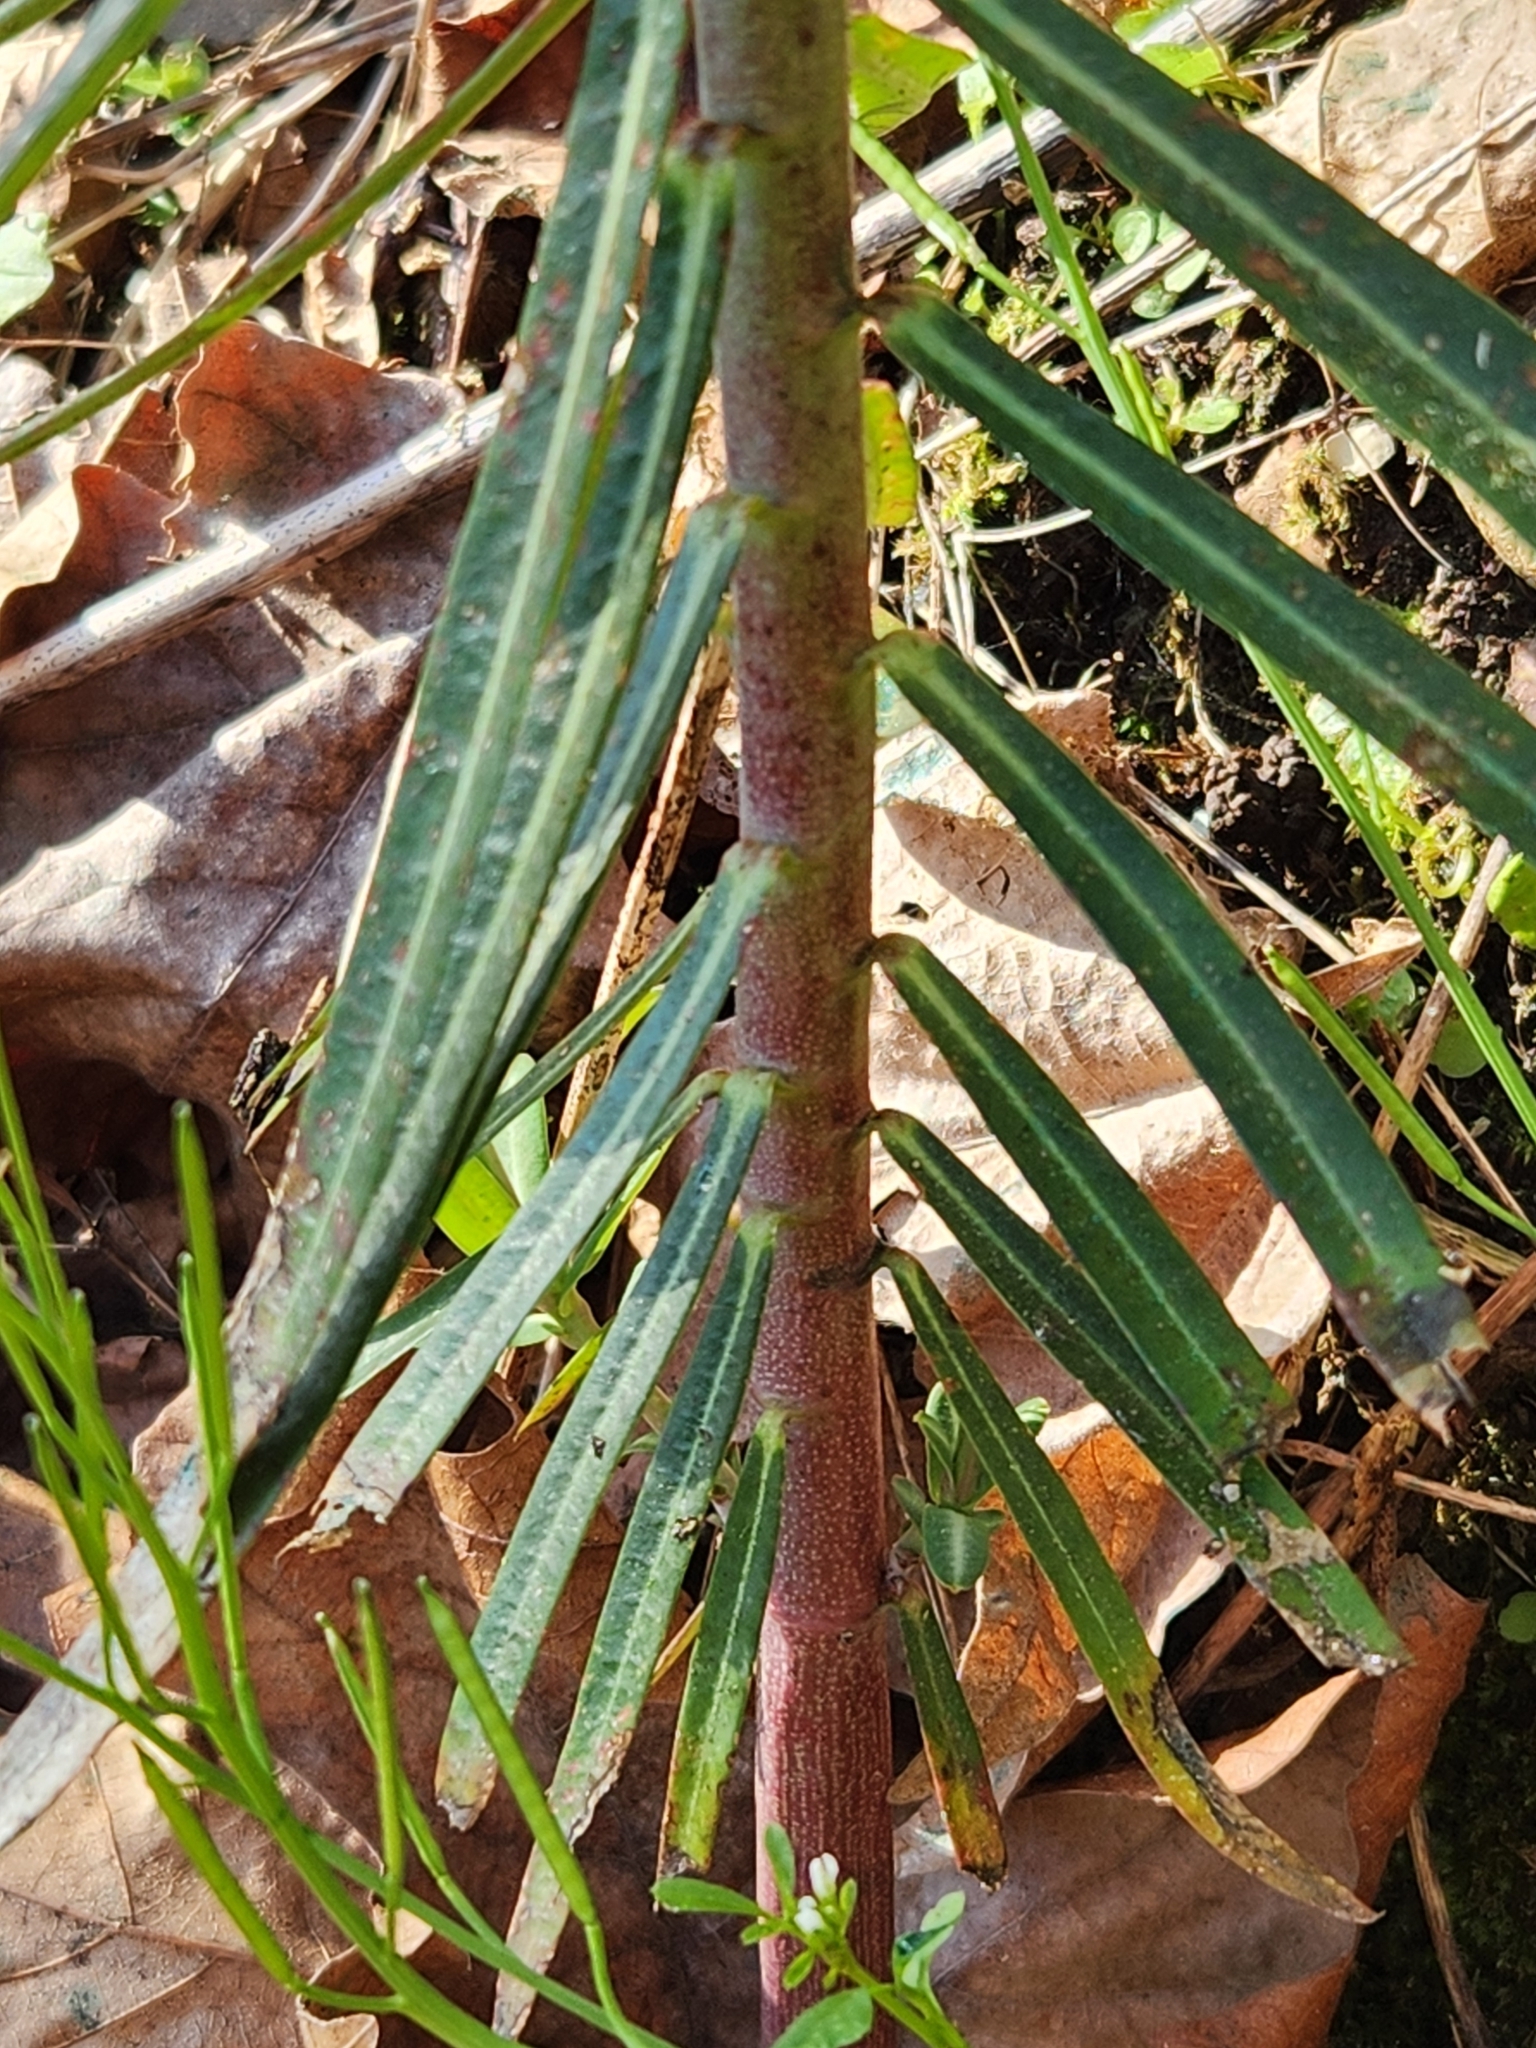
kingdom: Plantae
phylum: Tracheophyta
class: Magnoliopsida
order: Malpighiales
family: Euphorbiaceae
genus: Euphorbia
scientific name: Euphorbia lathyris
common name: Caper spurge
